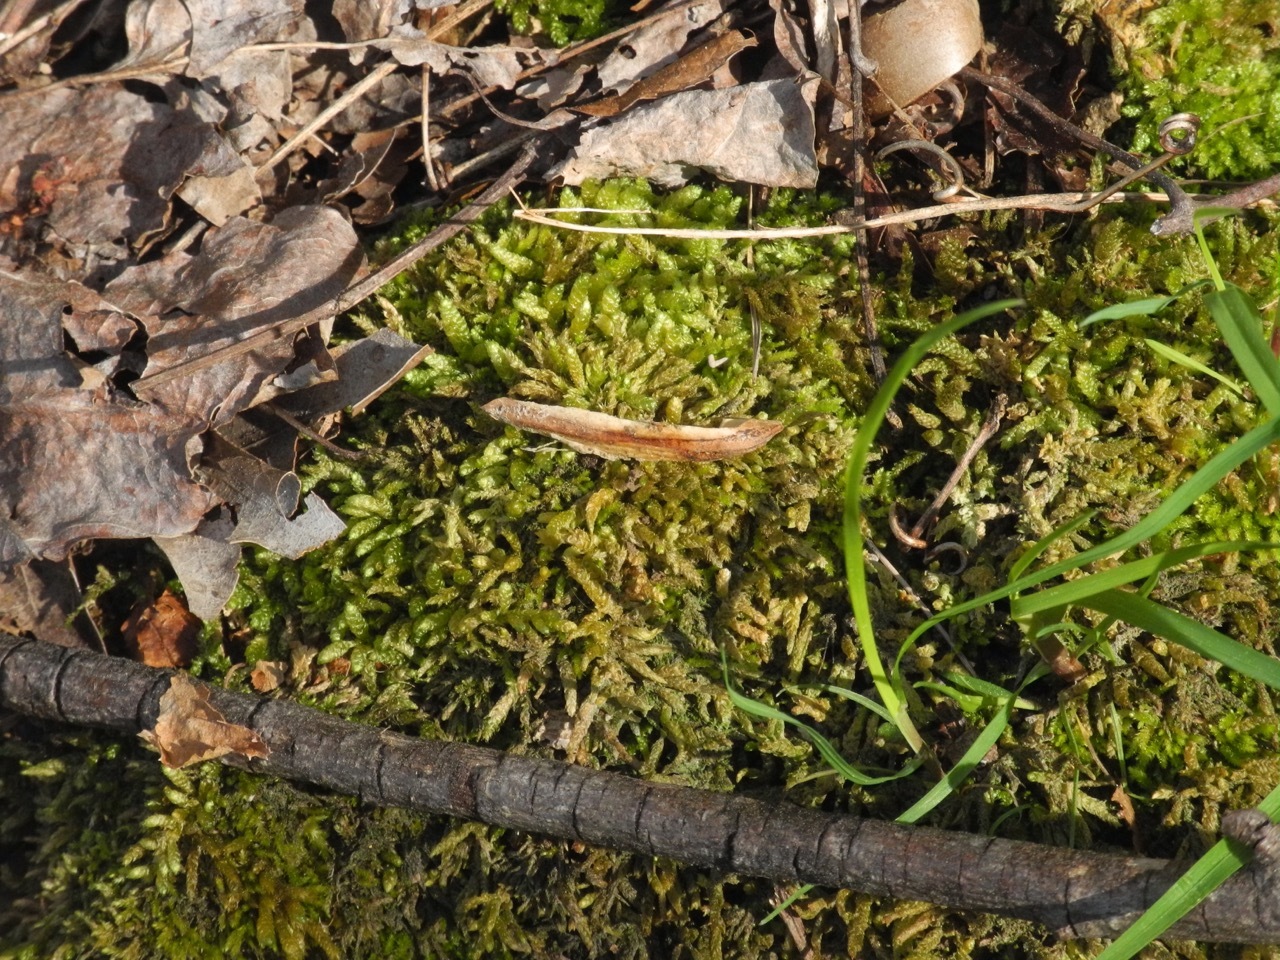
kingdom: Plantae
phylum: Tracheophyta
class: Magnoliopsida
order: Magnoliales
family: Magnoliaceae
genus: Liriodendron
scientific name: Liriodendron tulipifera
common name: Tulip tree
